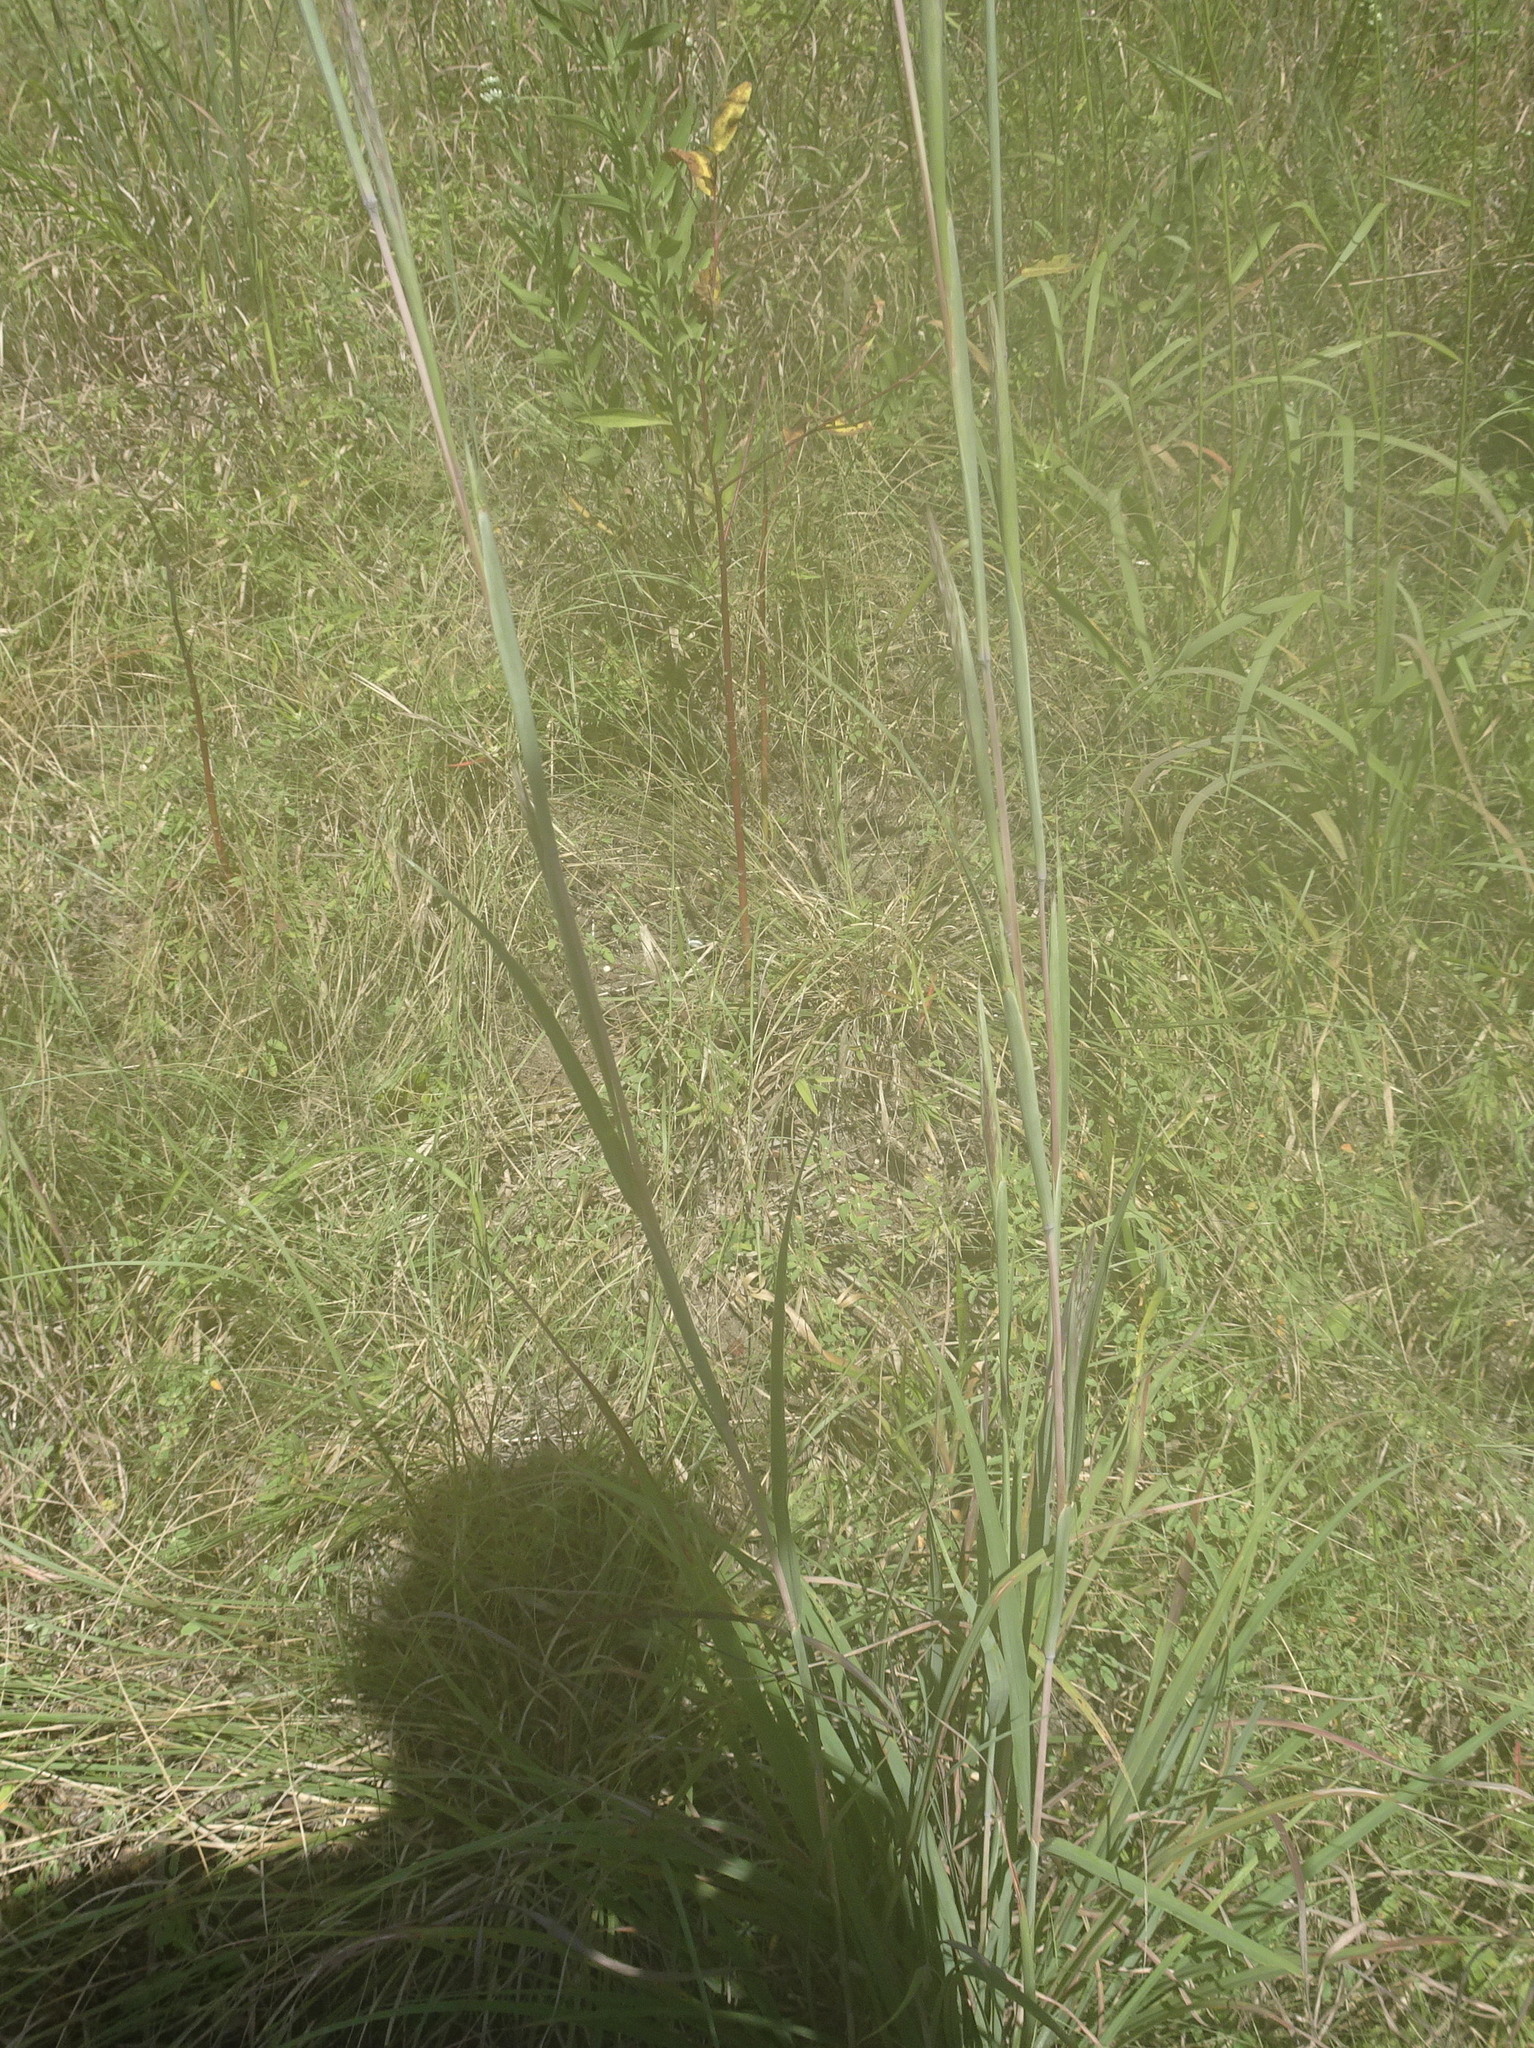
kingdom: Plantae
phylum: Tracheophyta
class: Liliopsida
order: Poales
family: Poaceae
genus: Andropogon
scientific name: Andropogon gerardi
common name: Big bluestem
